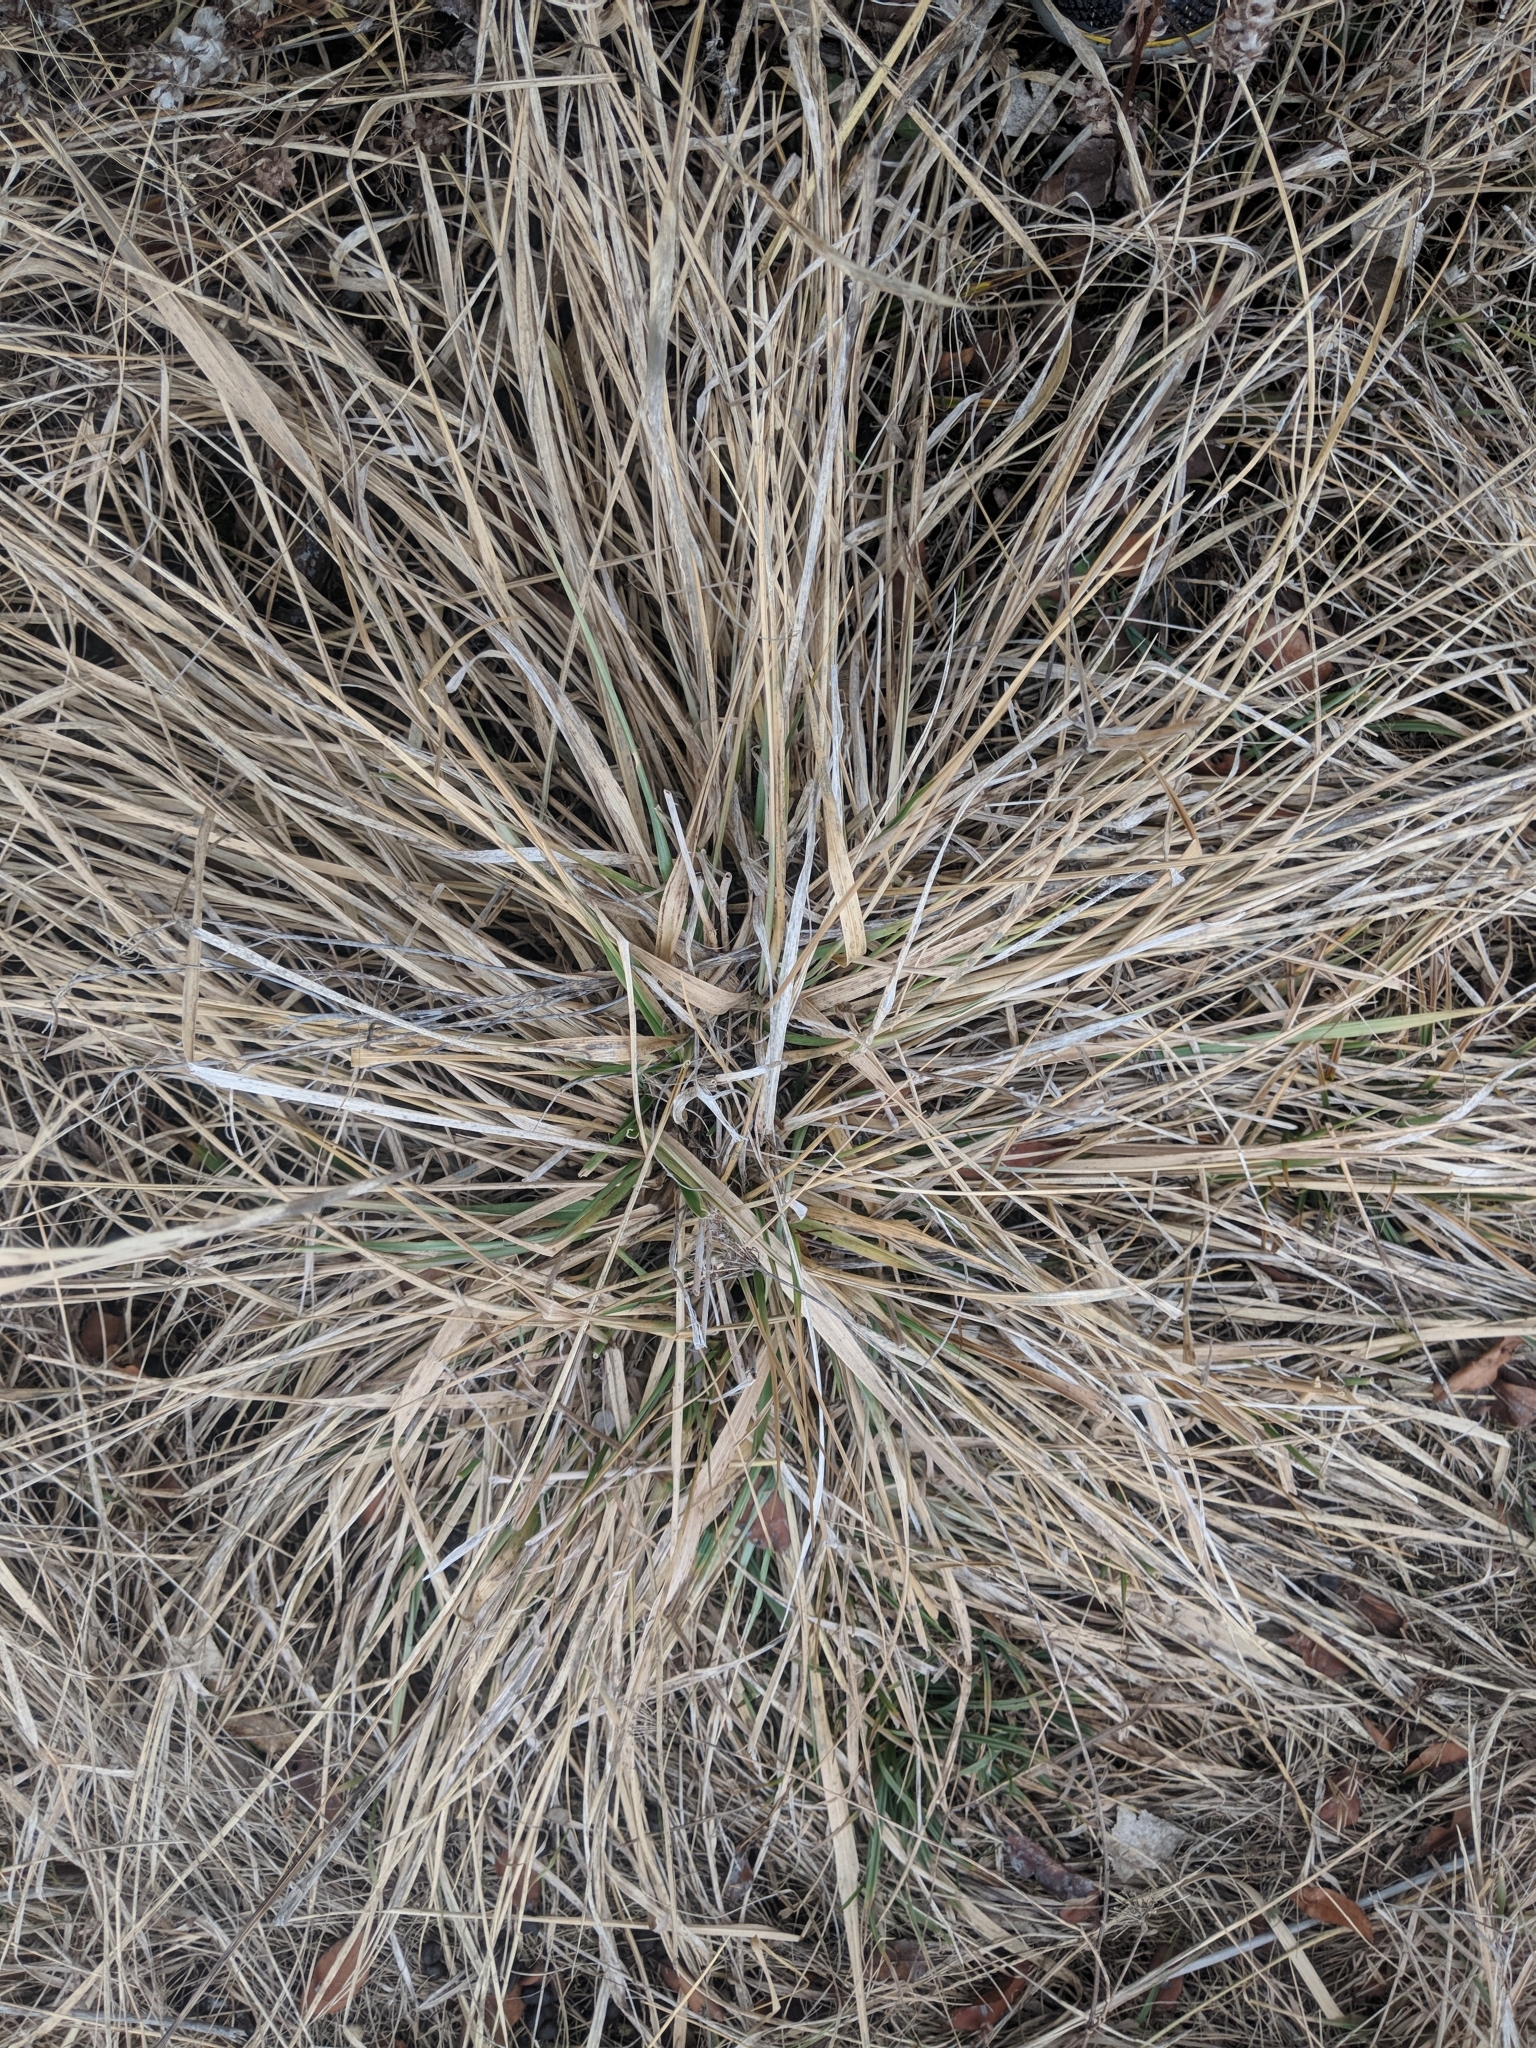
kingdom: Plantae
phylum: Tracheophyta
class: Liliopsida
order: Poales
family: Poaceae
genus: Lolium
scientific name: Lolium arundinaceum
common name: Reed fescue
